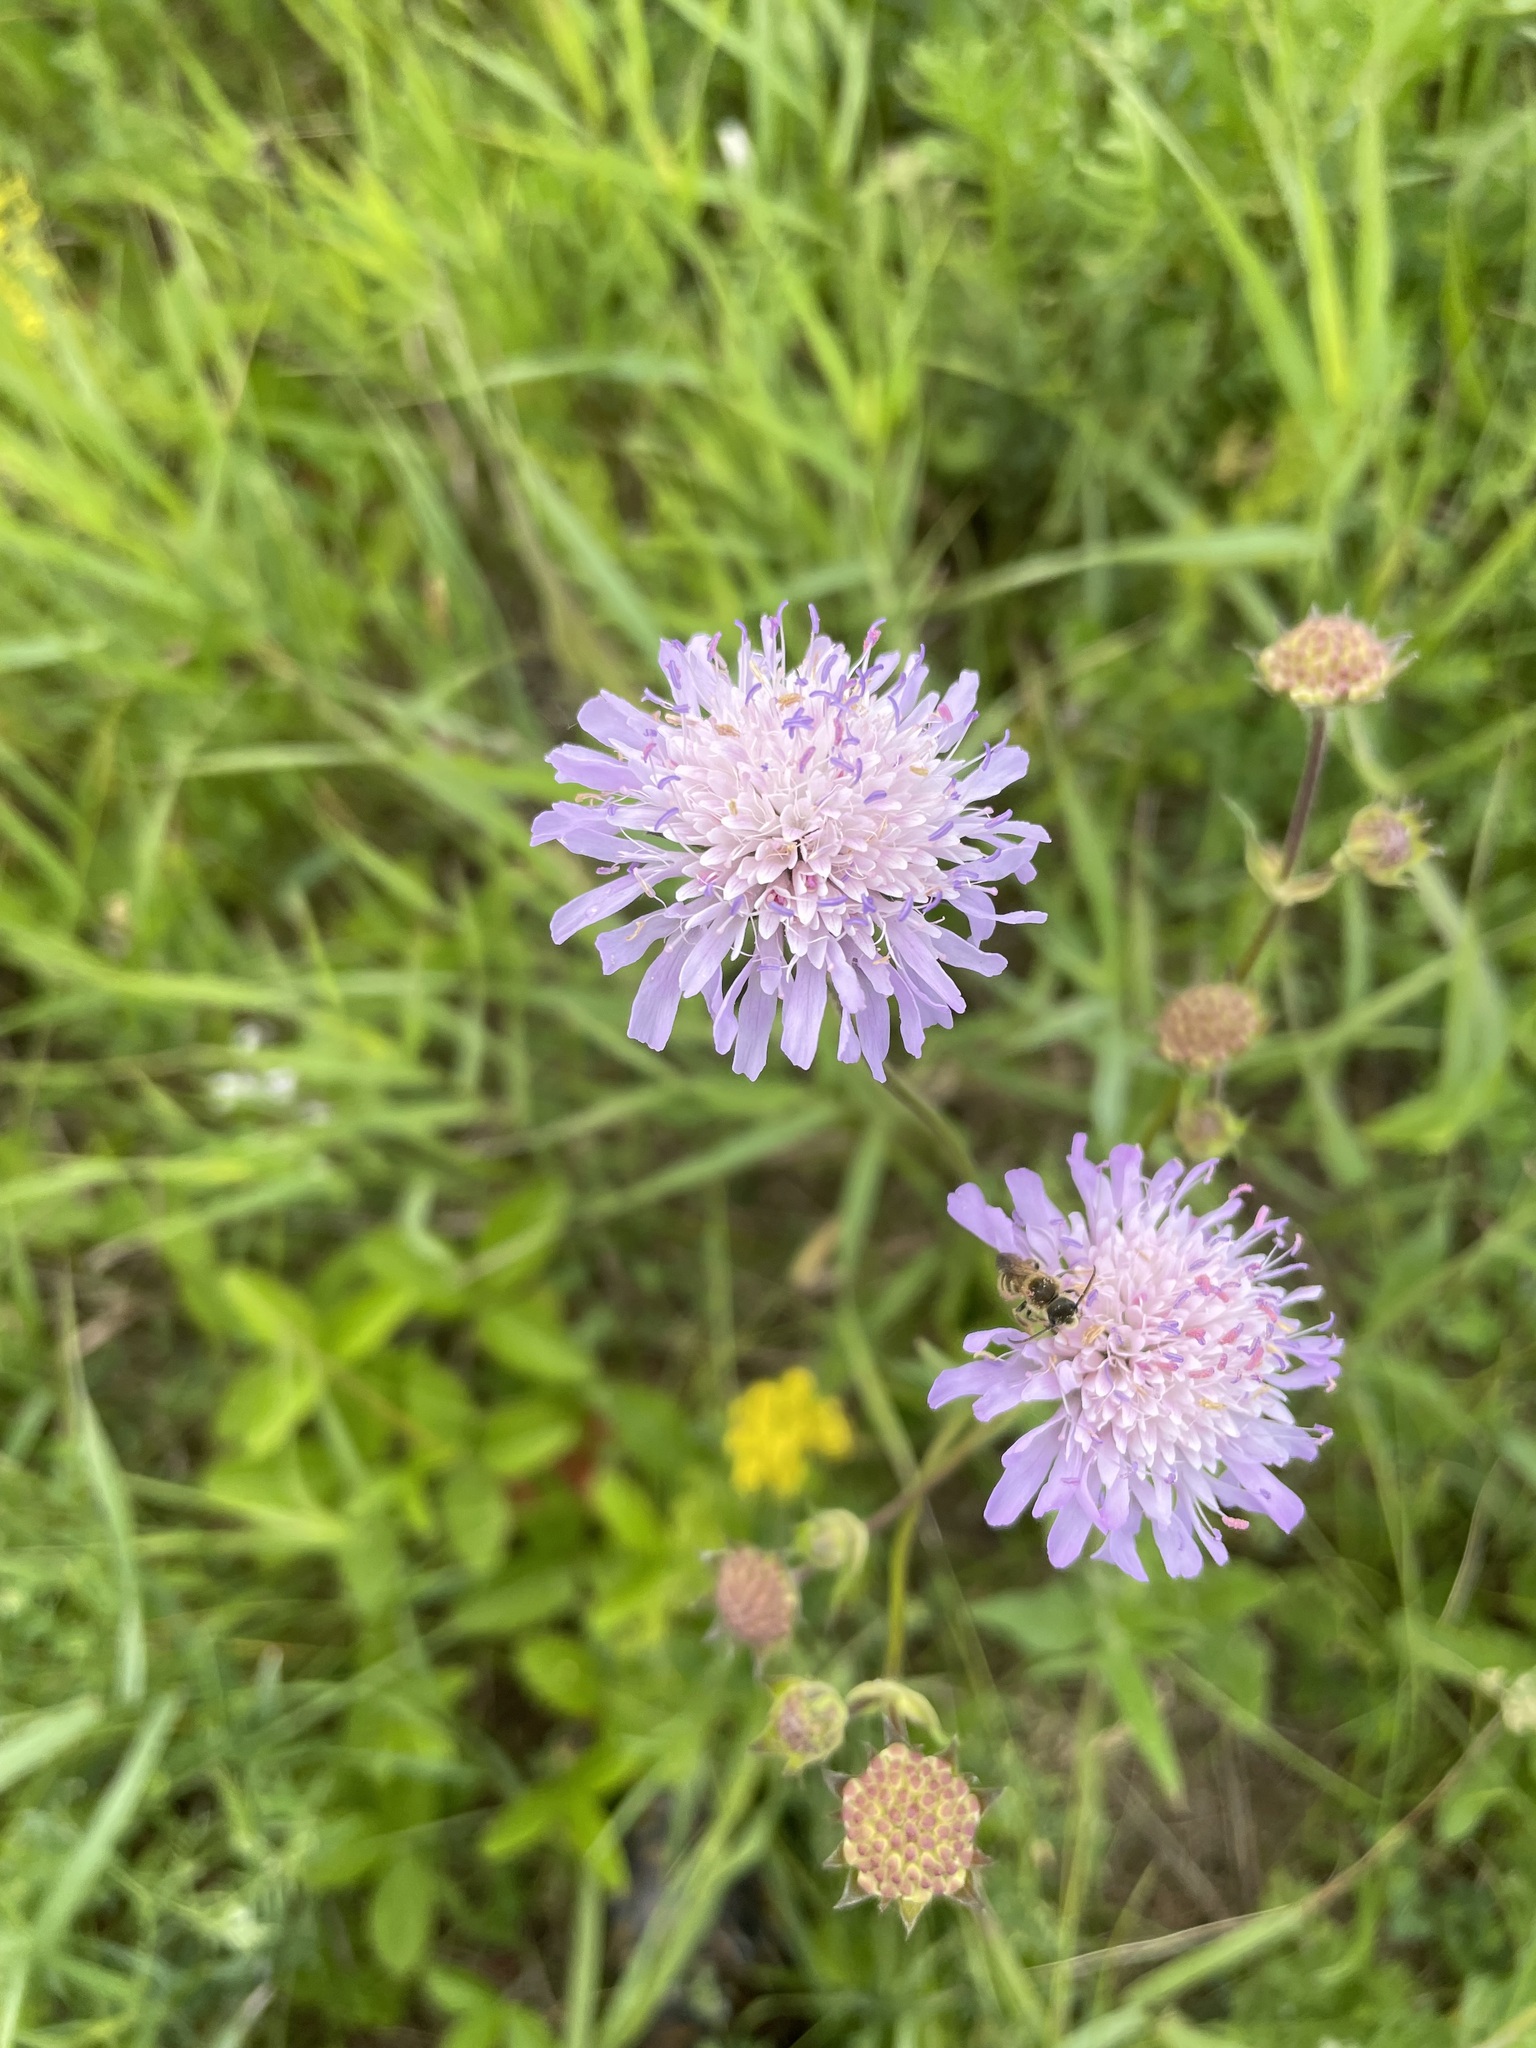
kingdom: Plantae
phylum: Tracheophyta
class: Magnoliopsida
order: Dipsacales
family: Caprifoliaceae
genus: Knautia
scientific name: Knautia arvensis
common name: Field scabiosa
